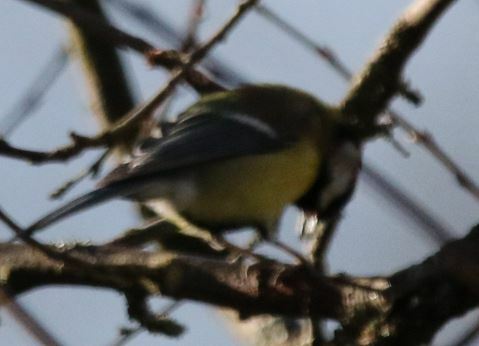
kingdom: Animalia
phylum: Chordata
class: Aves
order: Passeriformes
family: Paridae
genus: Parus
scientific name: Parus major
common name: Great tit
